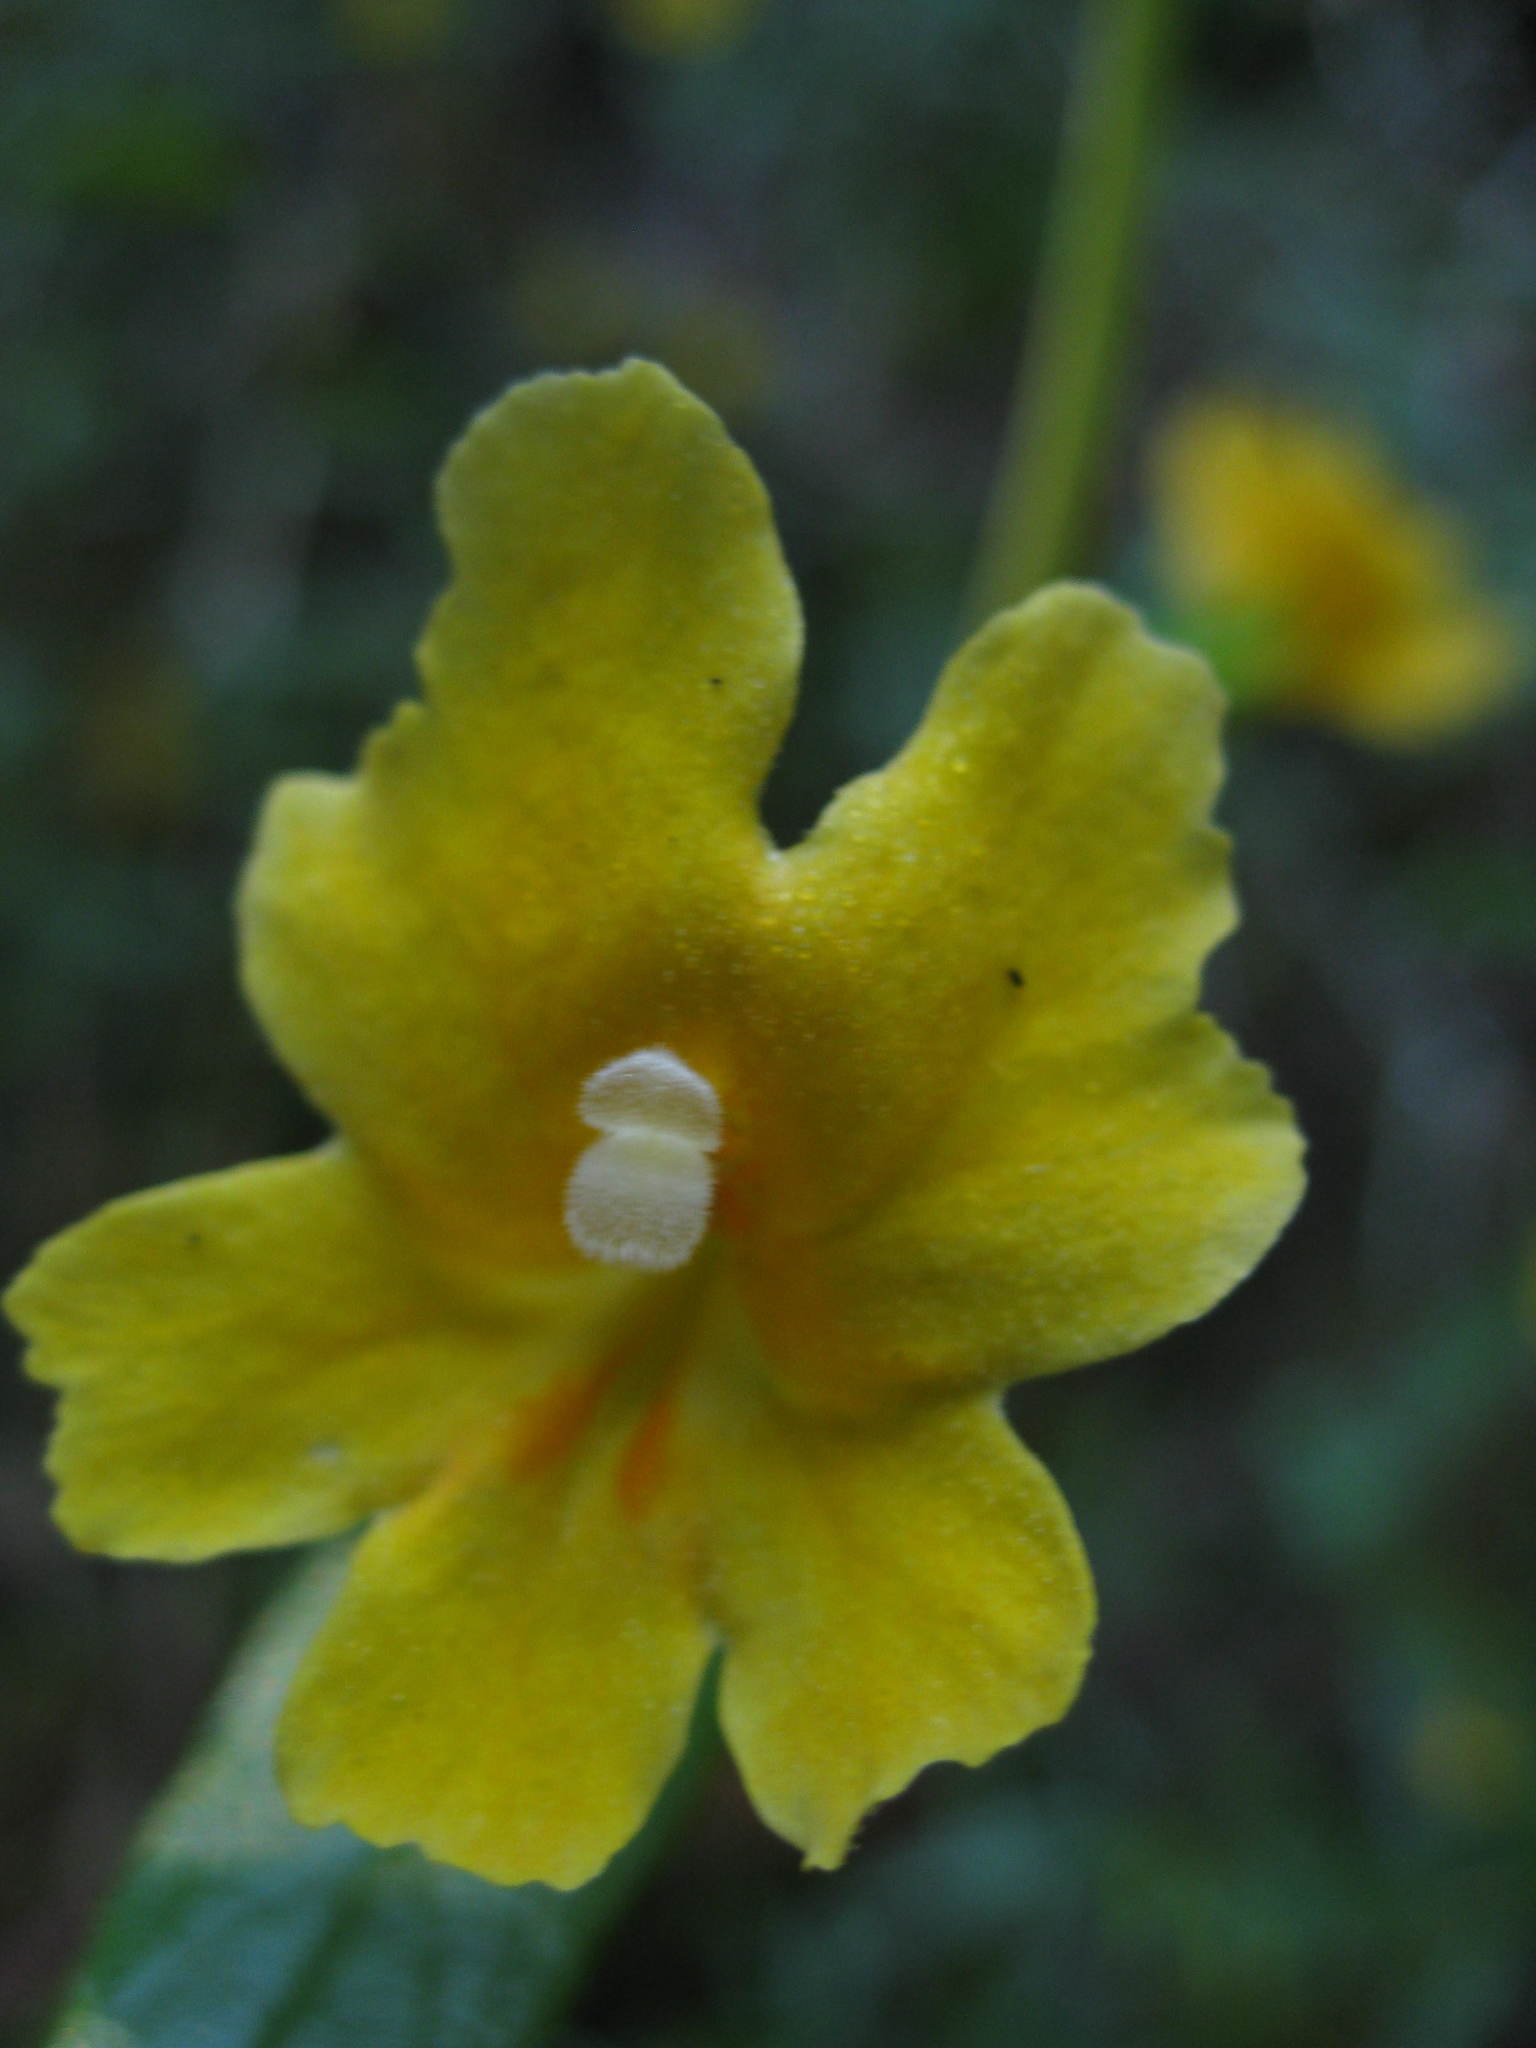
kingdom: Plantae
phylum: Tracheophyta
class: Magnoliopsida
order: Lamiales
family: Phrymaceae
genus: Diplacus
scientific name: Diplacus aurantiacus
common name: Bush monkey-flower
